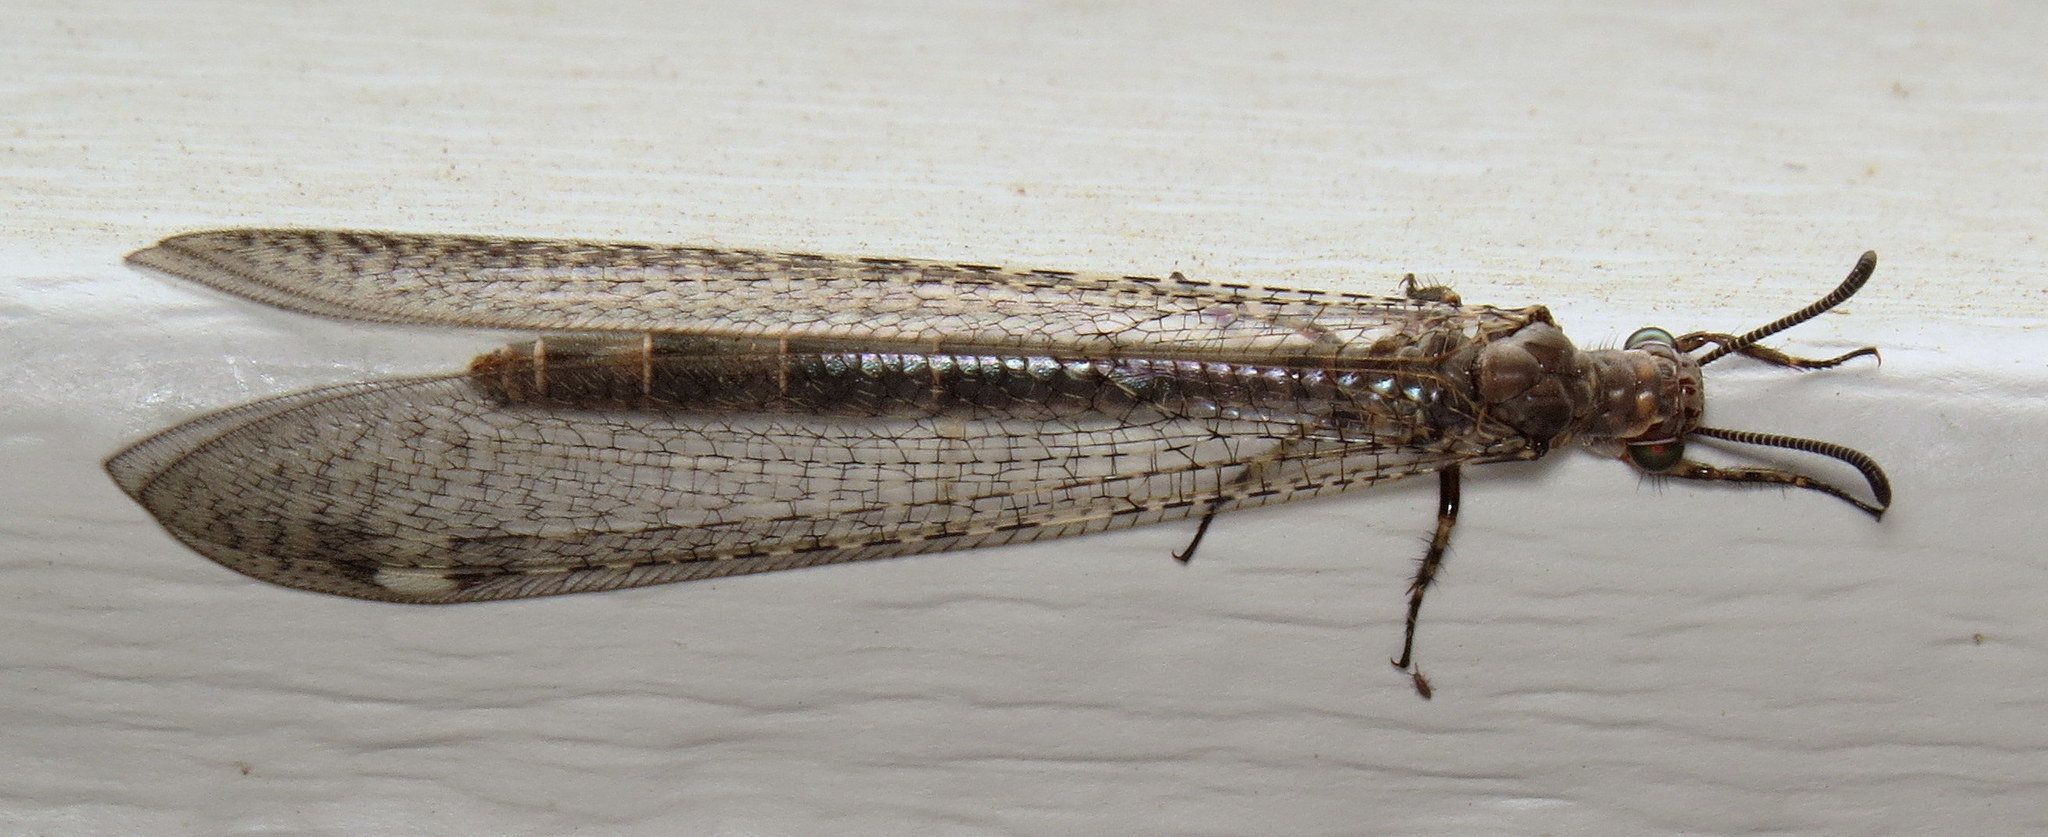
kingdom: Animalia
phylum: Arthropoda
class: Insecta
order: Neuroptera
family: Myrmeleontidae
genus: Myrmeleon
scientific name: Myrmeleon immaculatus
